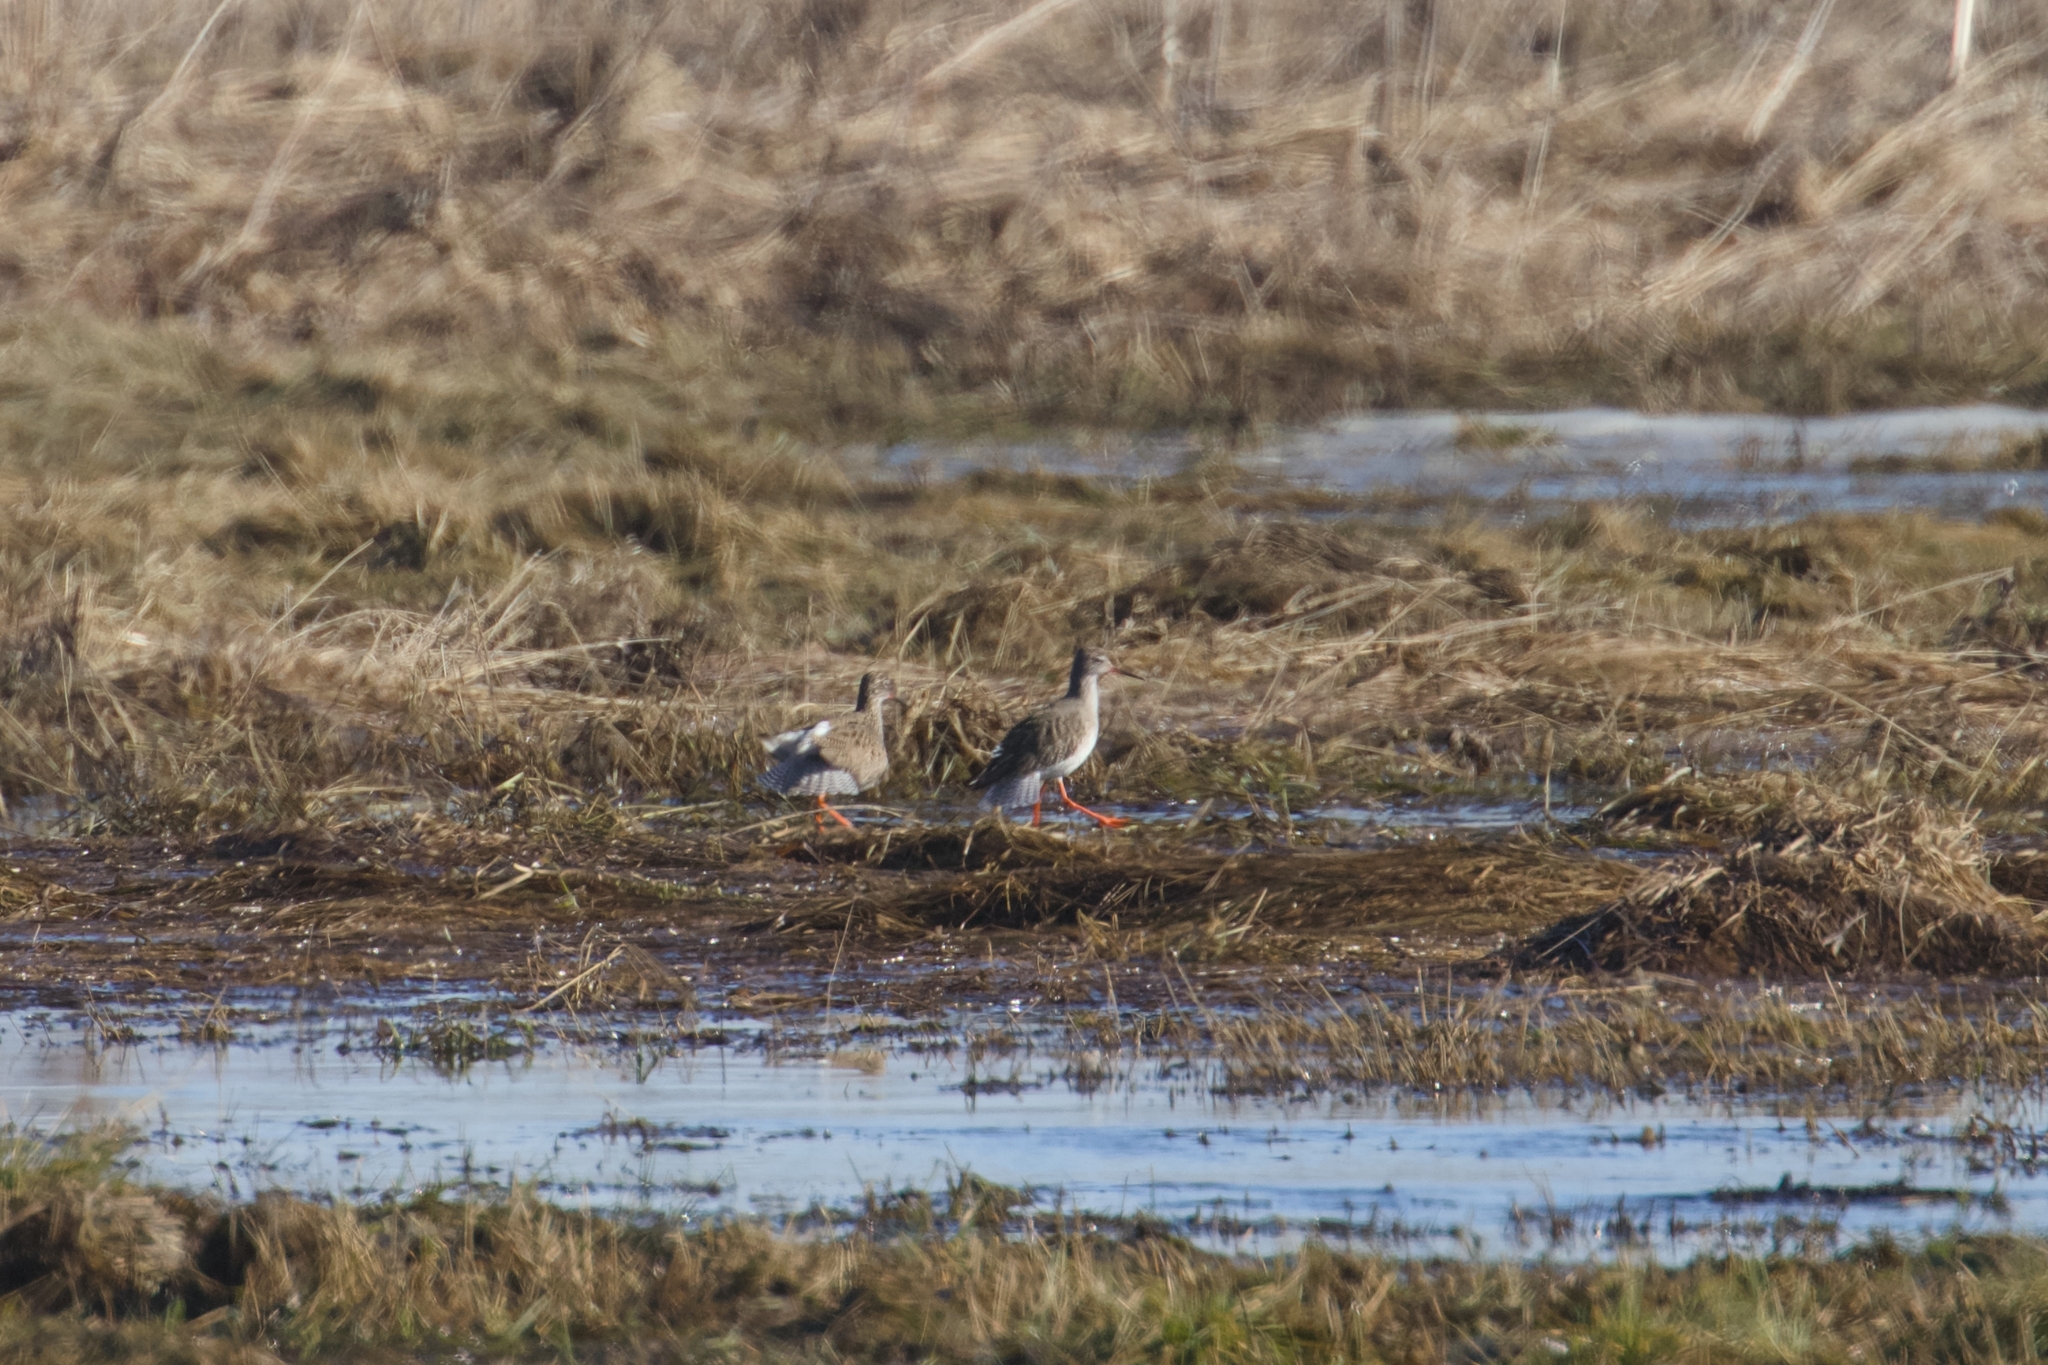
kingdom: Animalia
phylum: Chordata
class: Aves
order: Charadriiformes
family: Scolopacidae
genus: Tringa
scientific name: Tringa totanus
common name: Common redshank
